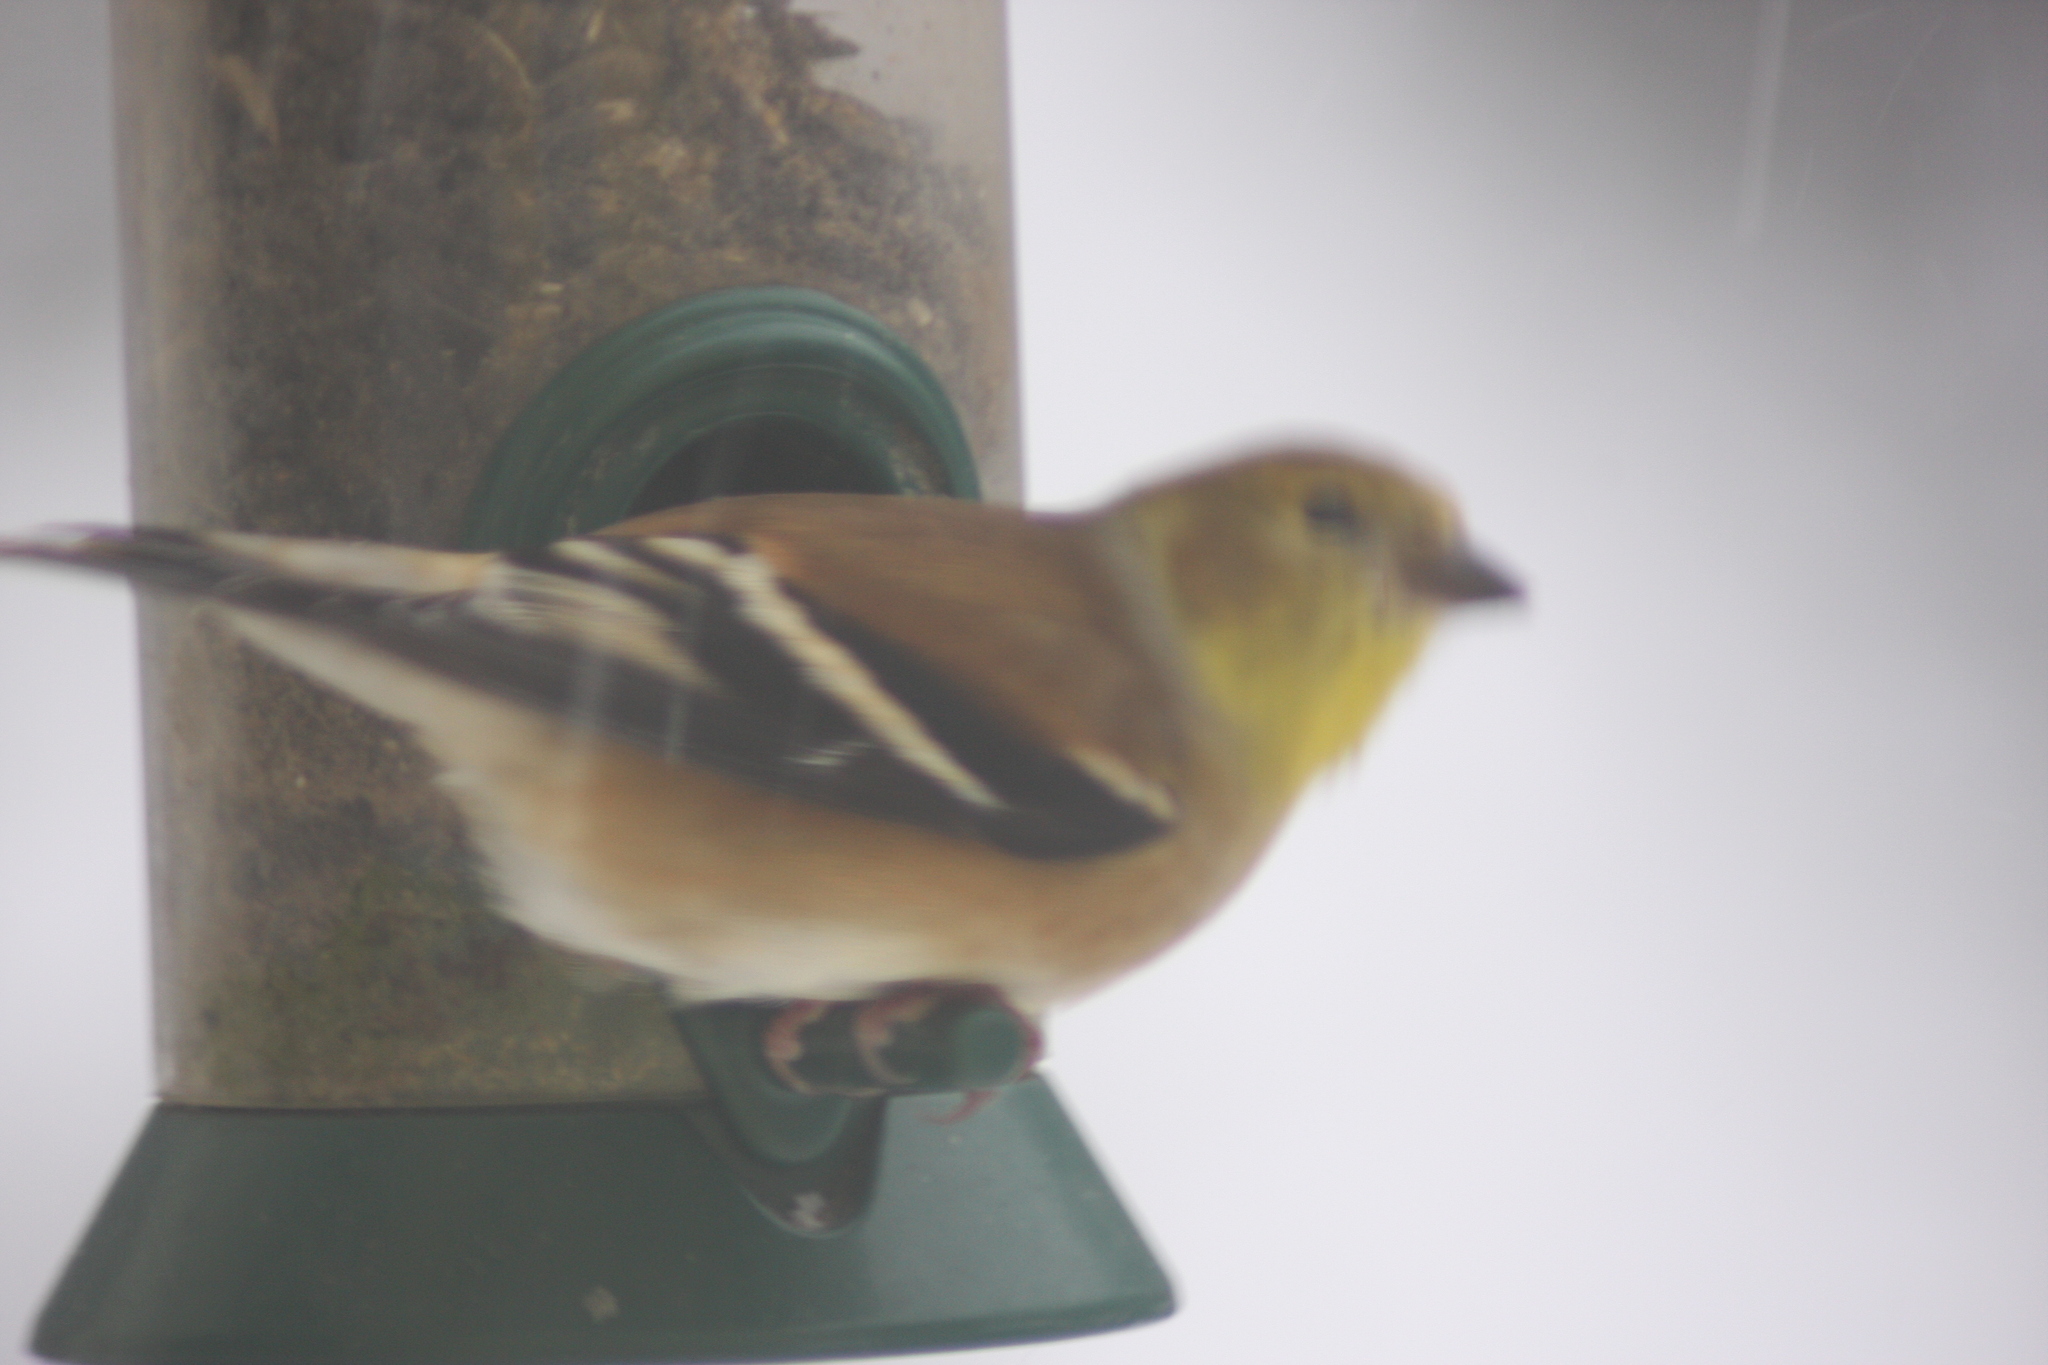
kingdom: Animalia
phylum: Chordata
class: Aves
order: Passeriformes
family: Fringillidae
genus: Spinus
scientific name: Spinus tristis
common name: American goldfinch
